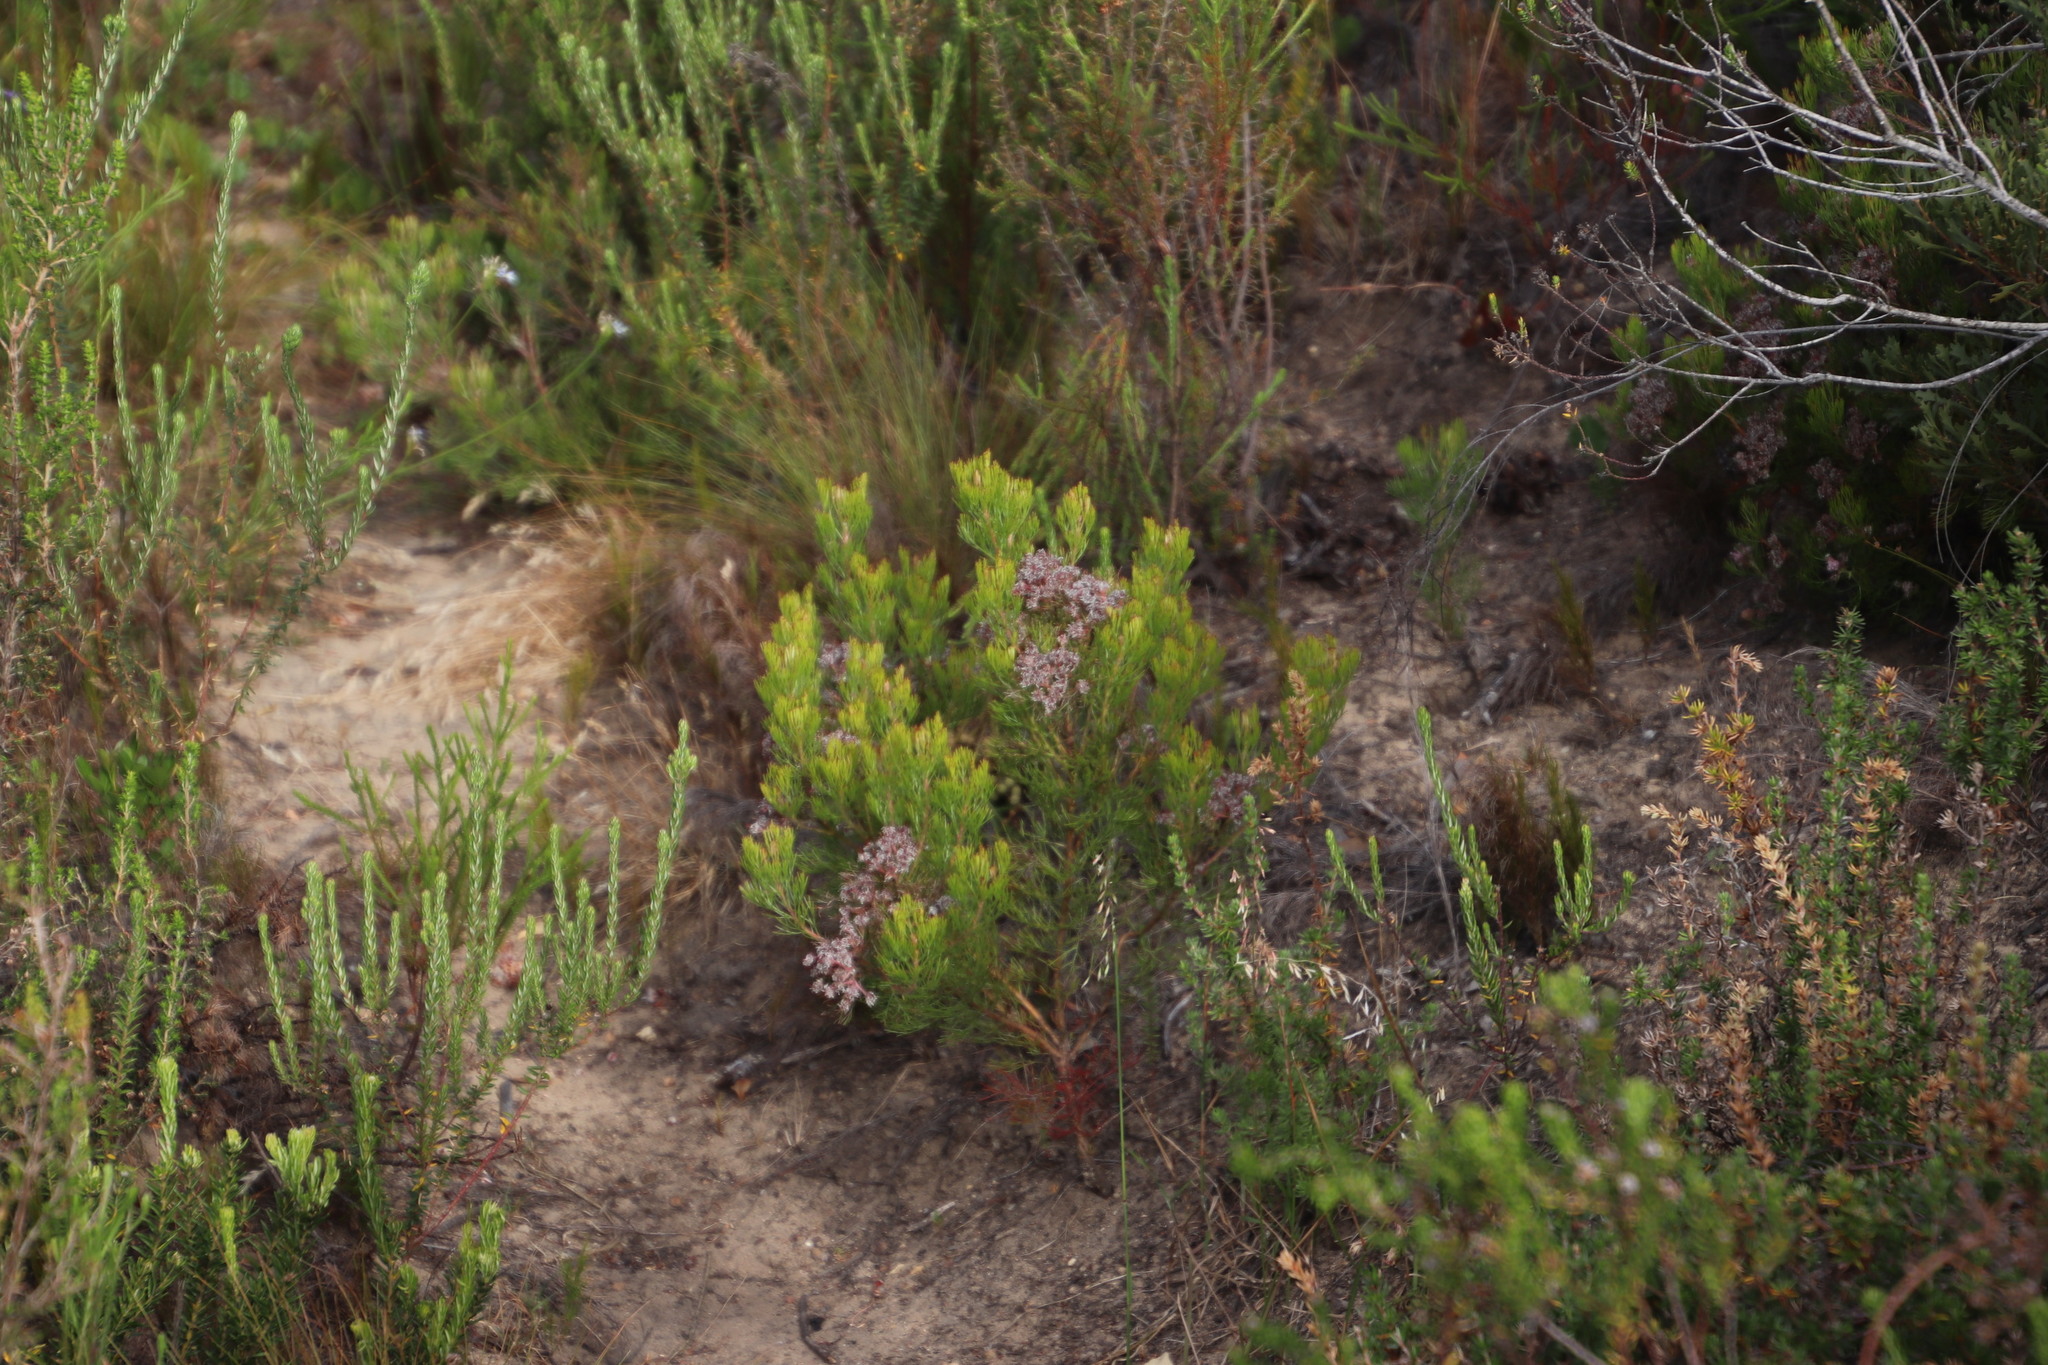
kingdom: Plantae
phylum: Tracheophyta
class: Magnoliopsida
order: Proteales
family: Proteaceae
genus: Serruria
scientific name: Serruria fasciflora
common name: Common pin spiderhead
